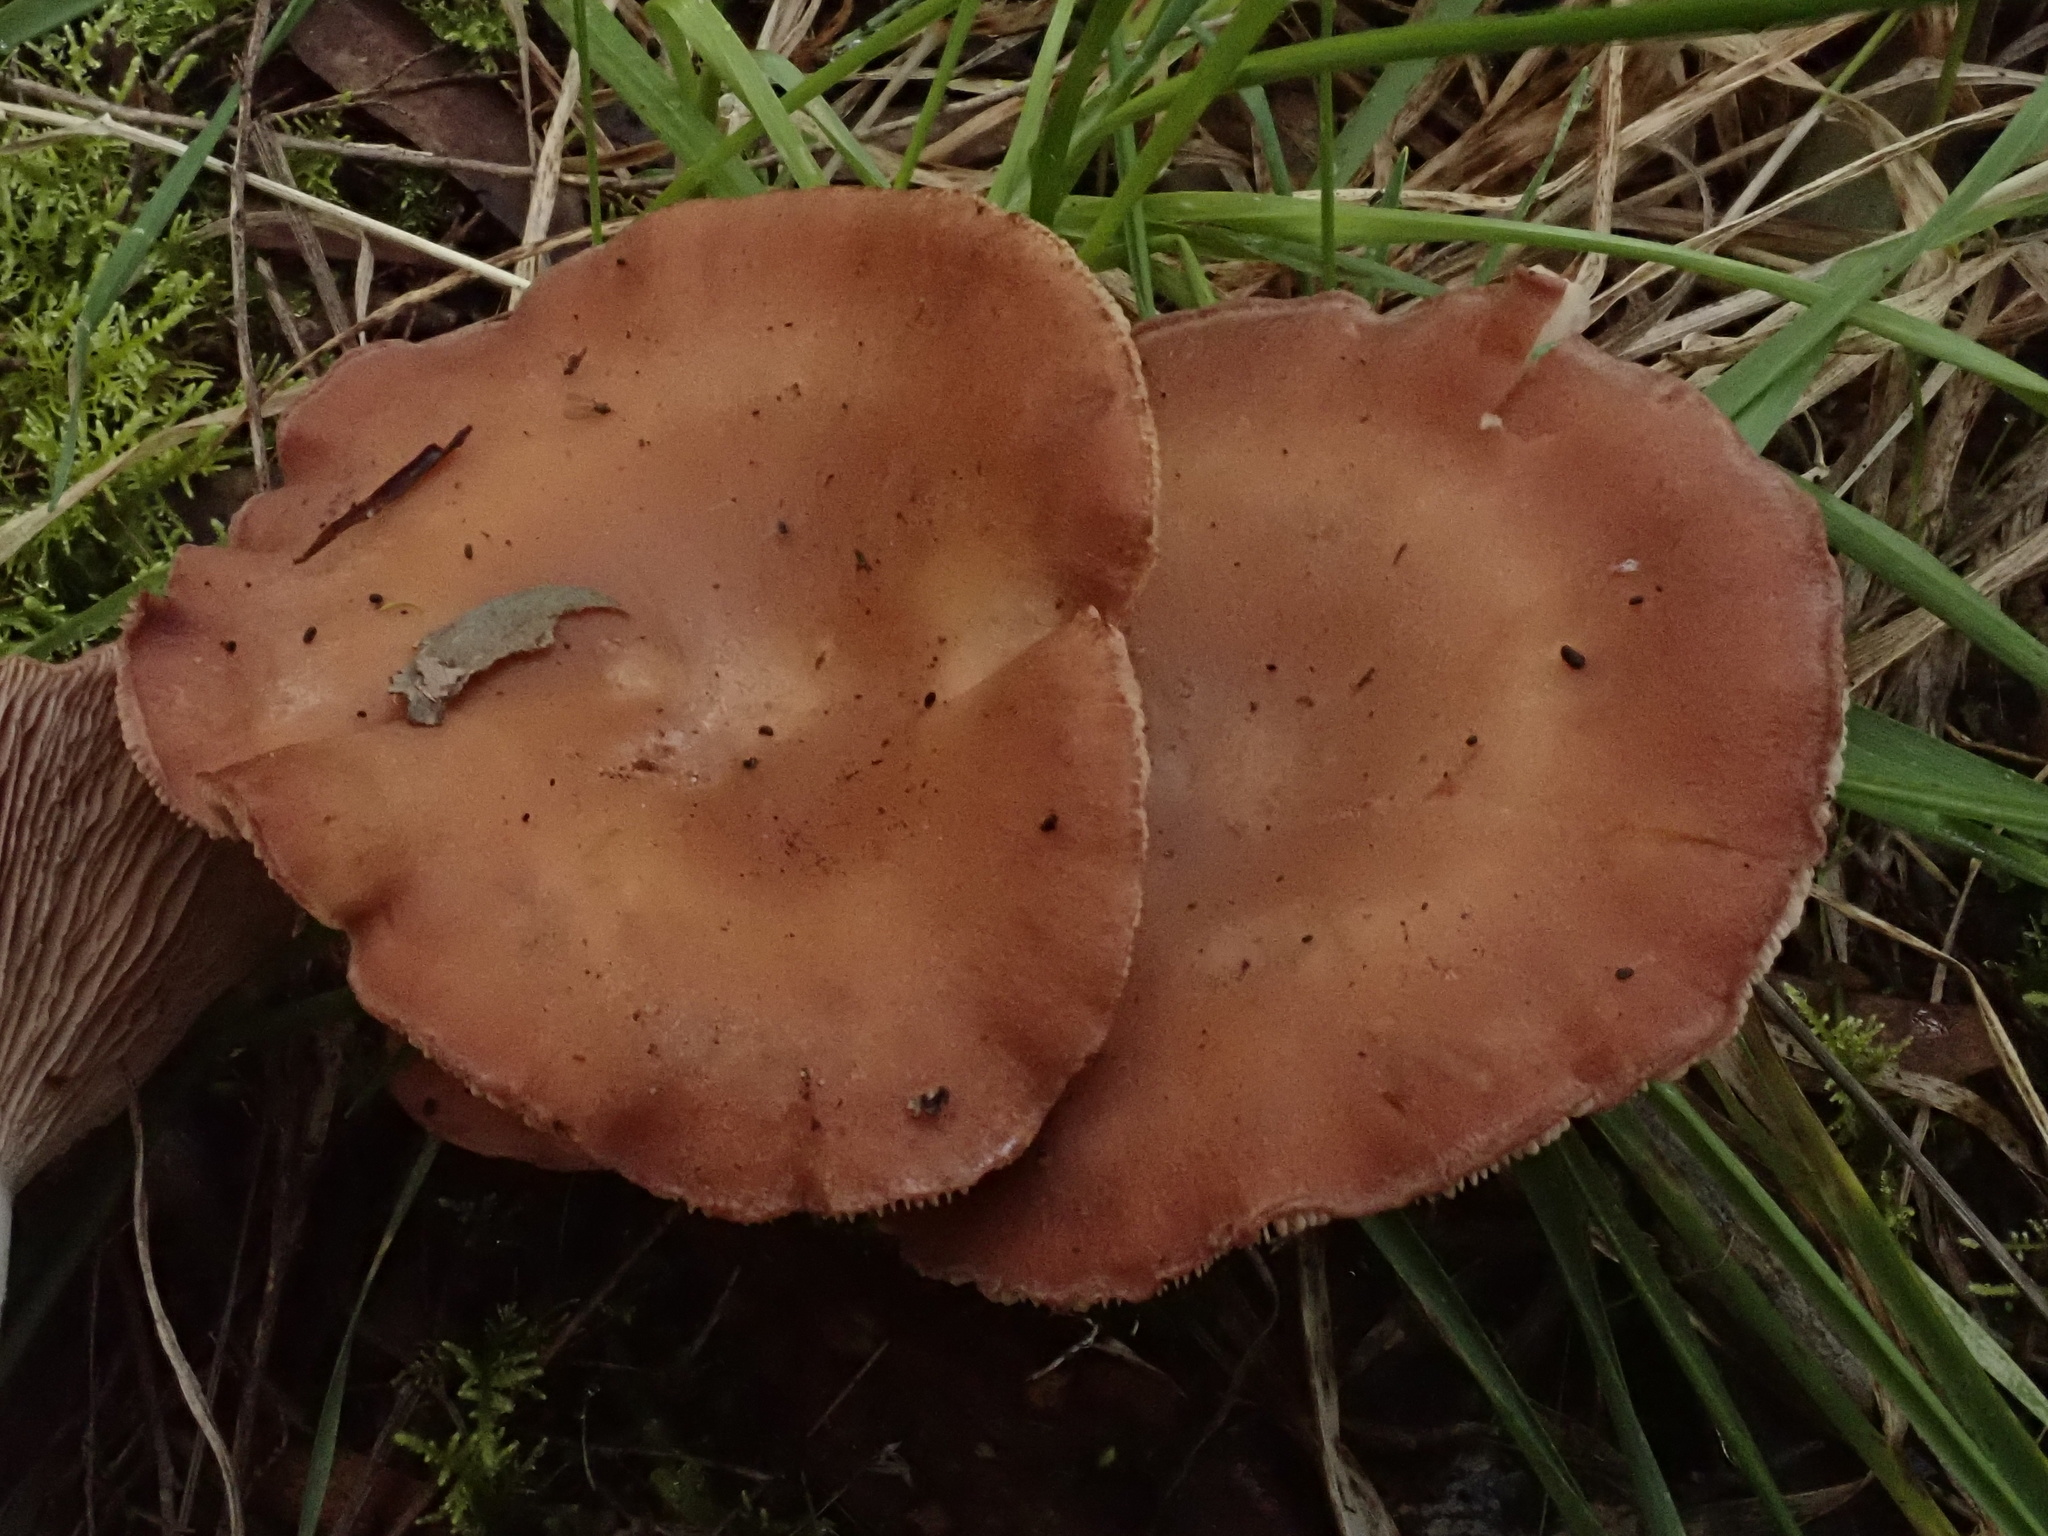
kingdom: Fungi
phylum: Basidiomycota
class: Agaricomycetes
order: Agaricales
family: Entolomataceae
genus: Clitopilus
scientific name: Clitopilus lateritius
